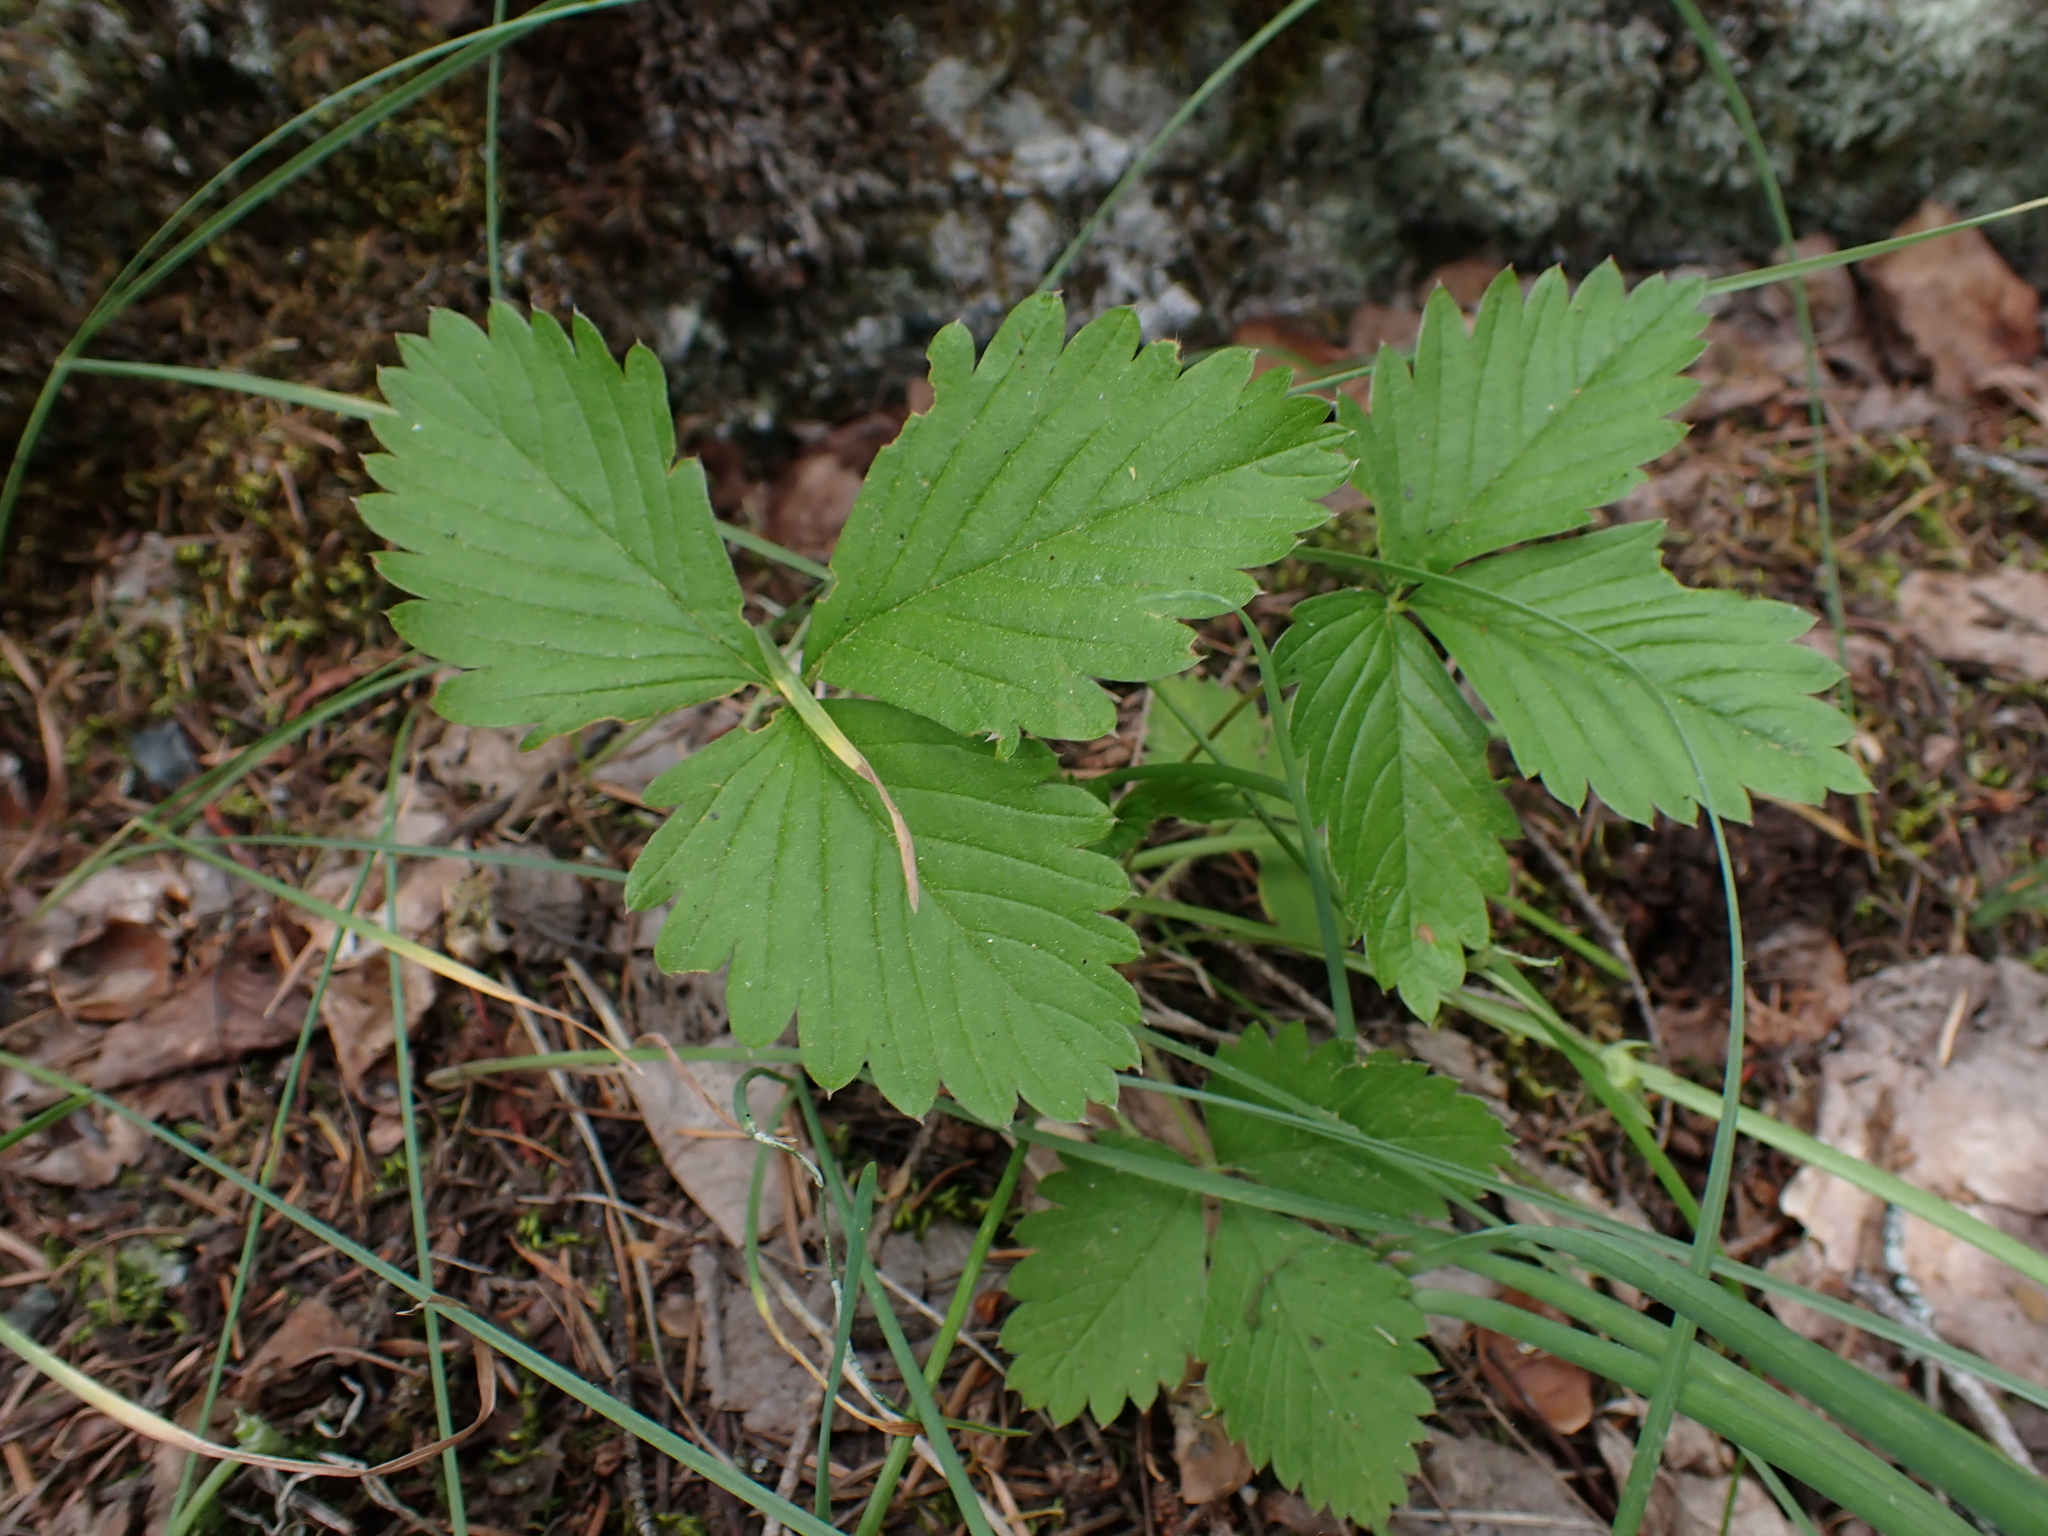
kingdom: Plantae
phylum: Tracheophyta
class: Magnoliopsida
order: Rosales
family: Rosaceae
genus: Fragaria
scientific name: Fragaria vesca
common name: Wild strawberry
